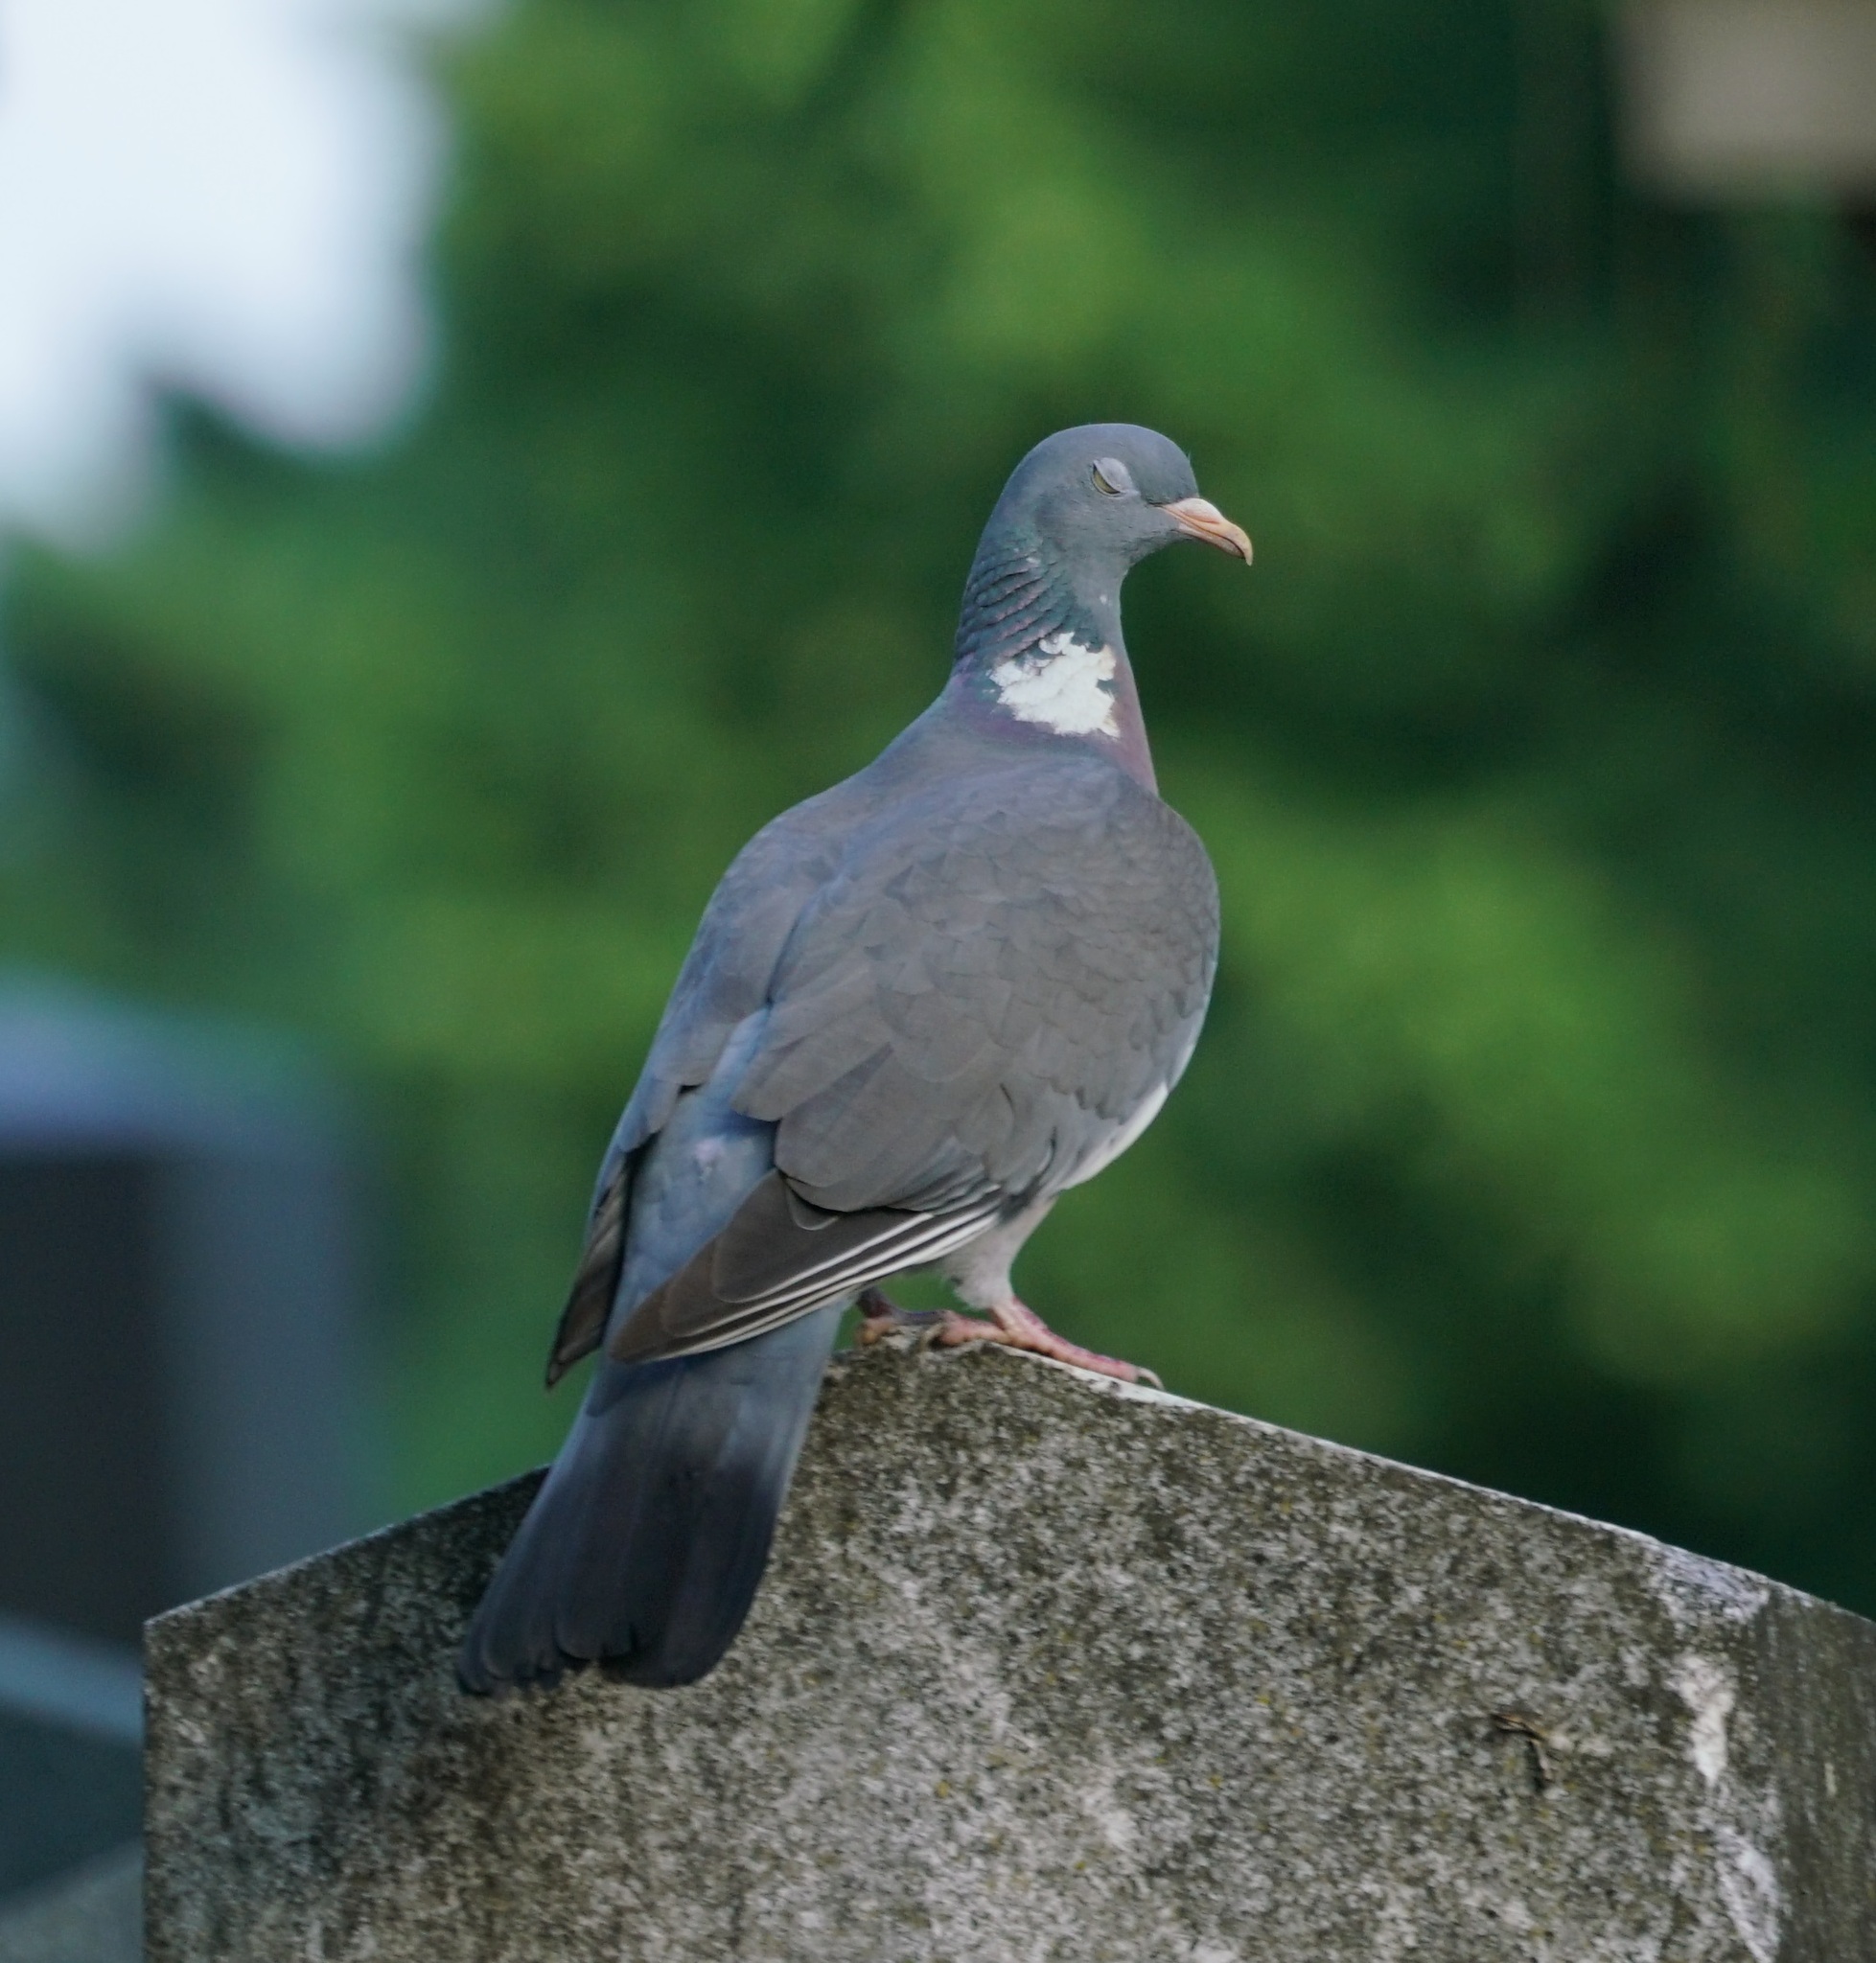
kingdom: Animalia
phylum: Chordata
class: Aves
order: Columbiformes
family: Columbidae
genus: Columba
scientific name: Columba palumbus
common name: Common wood pigeon
